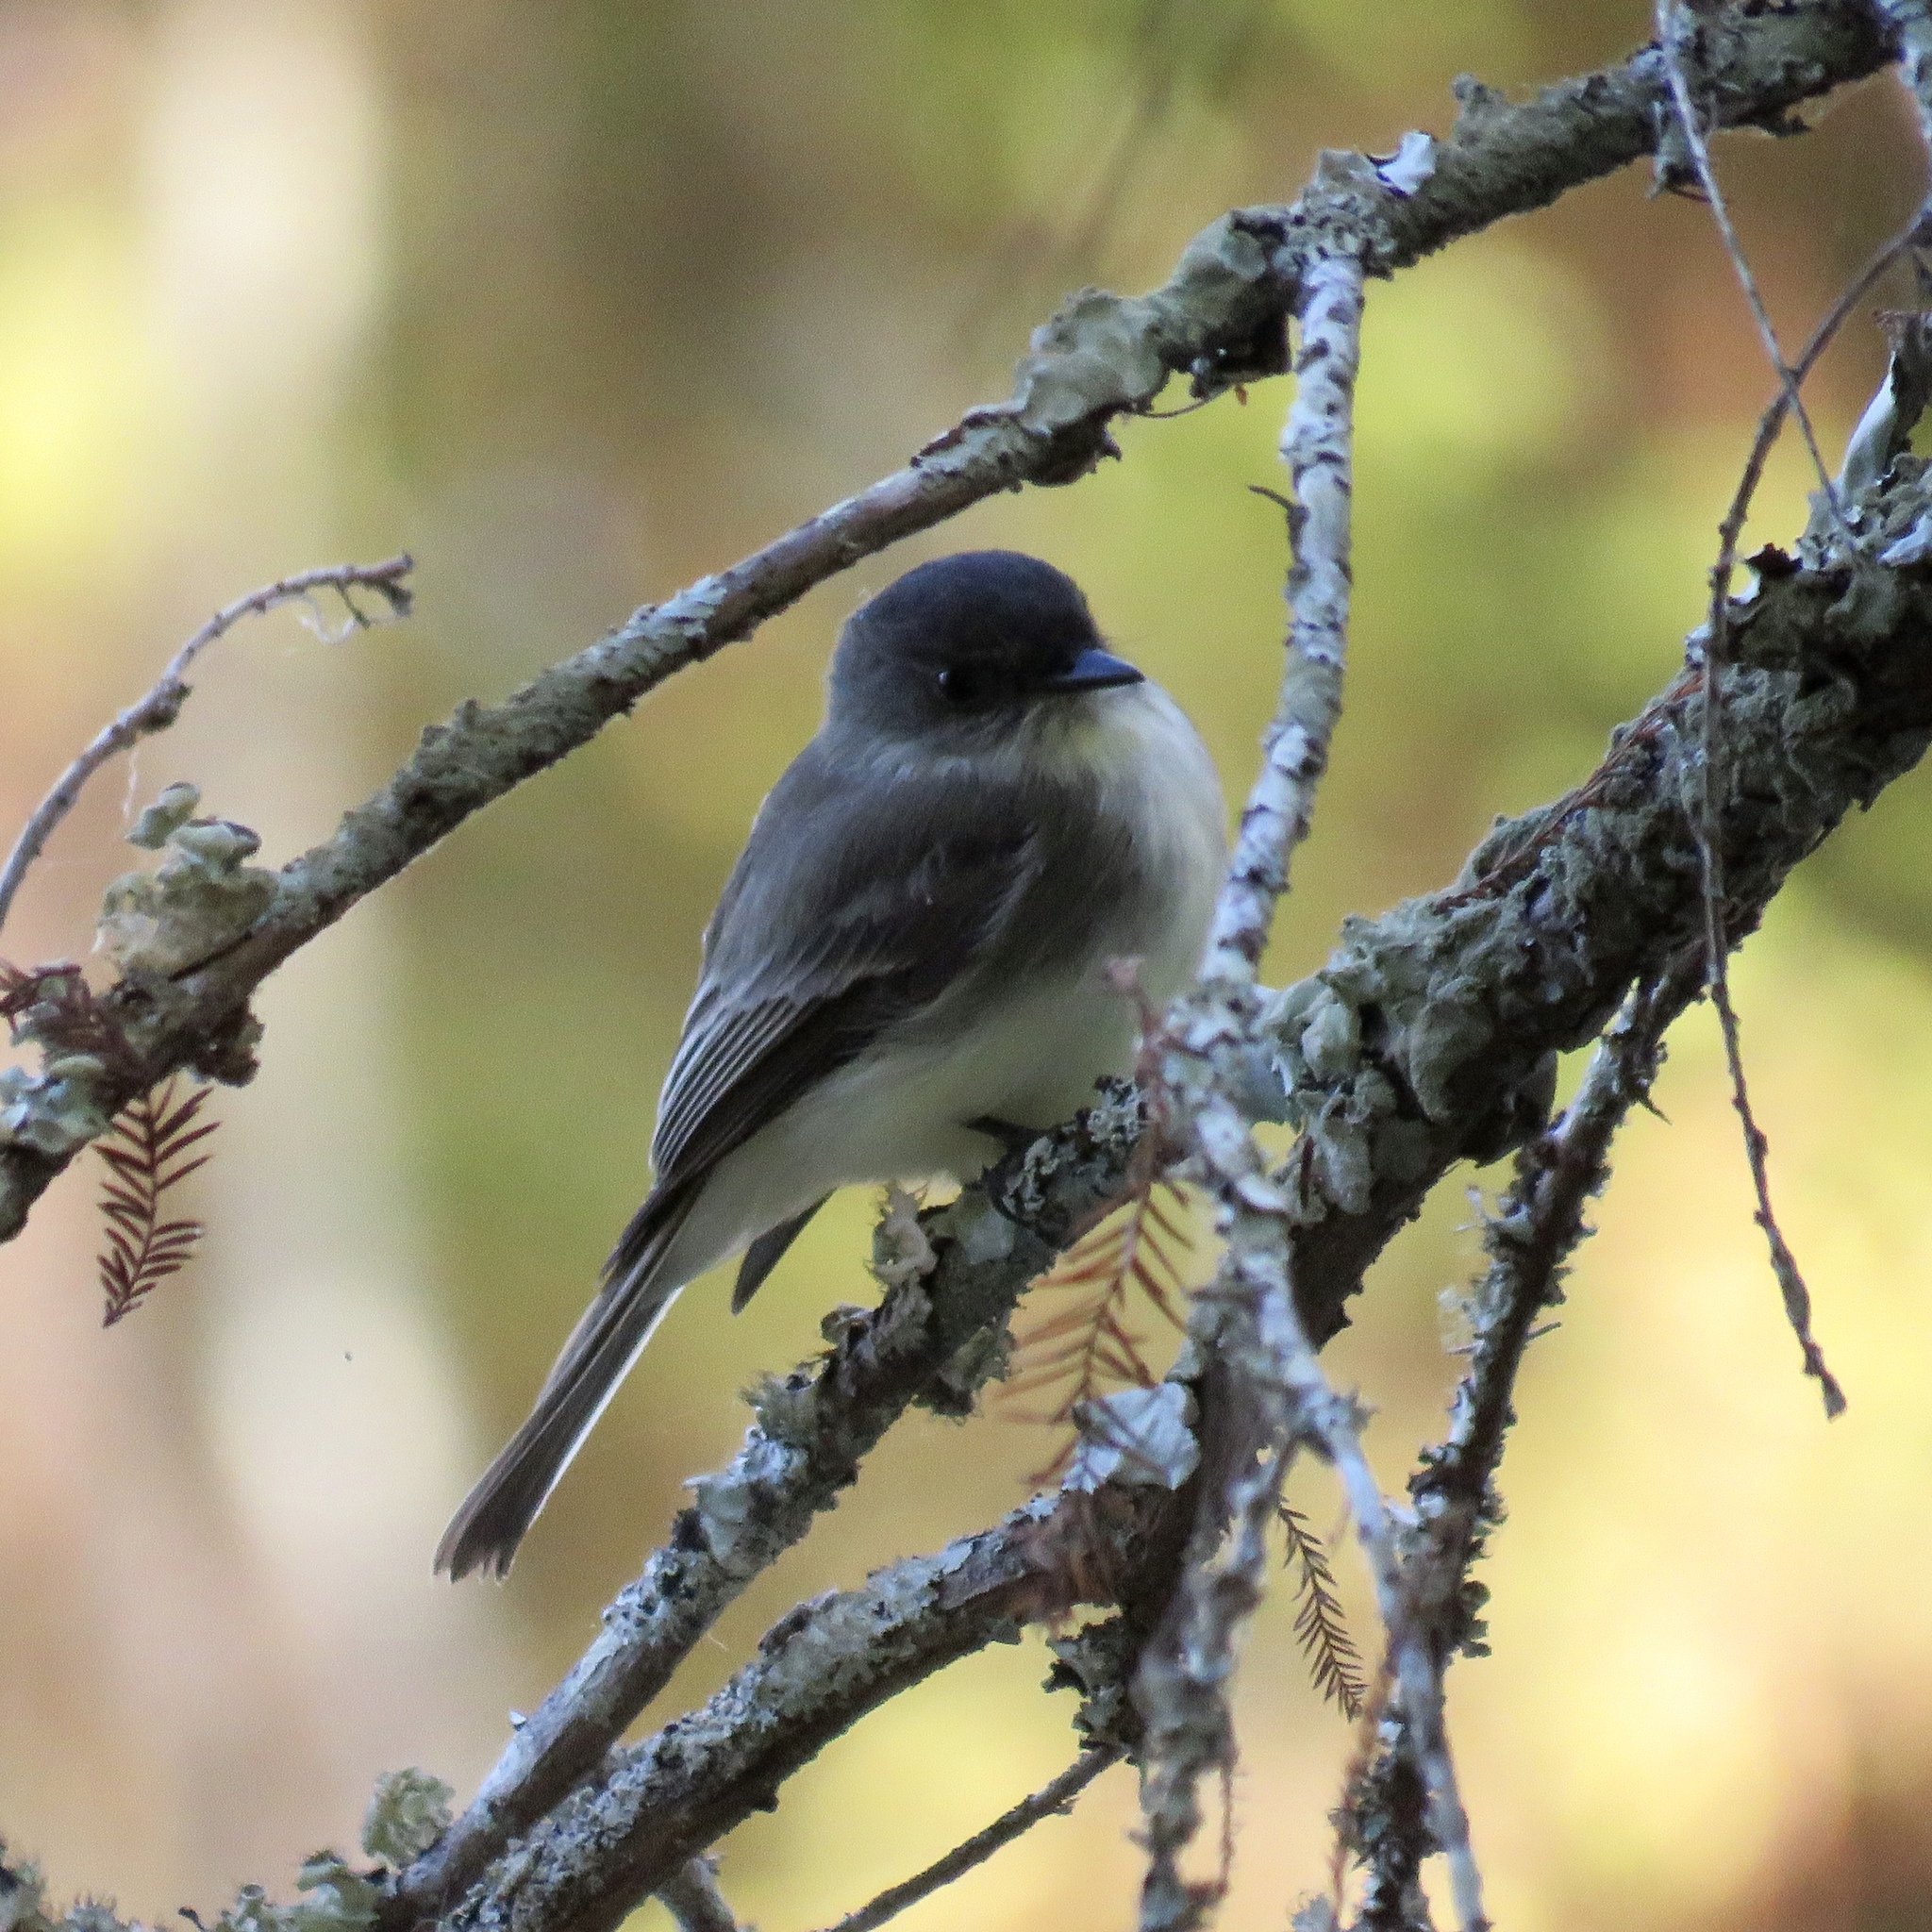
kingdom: Animalia
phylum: Chordata
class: Aves
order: Passeriformes
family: Tyrannidae
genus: Sayornis
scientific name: Sayornis phoebe
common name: Eastern phoebe
